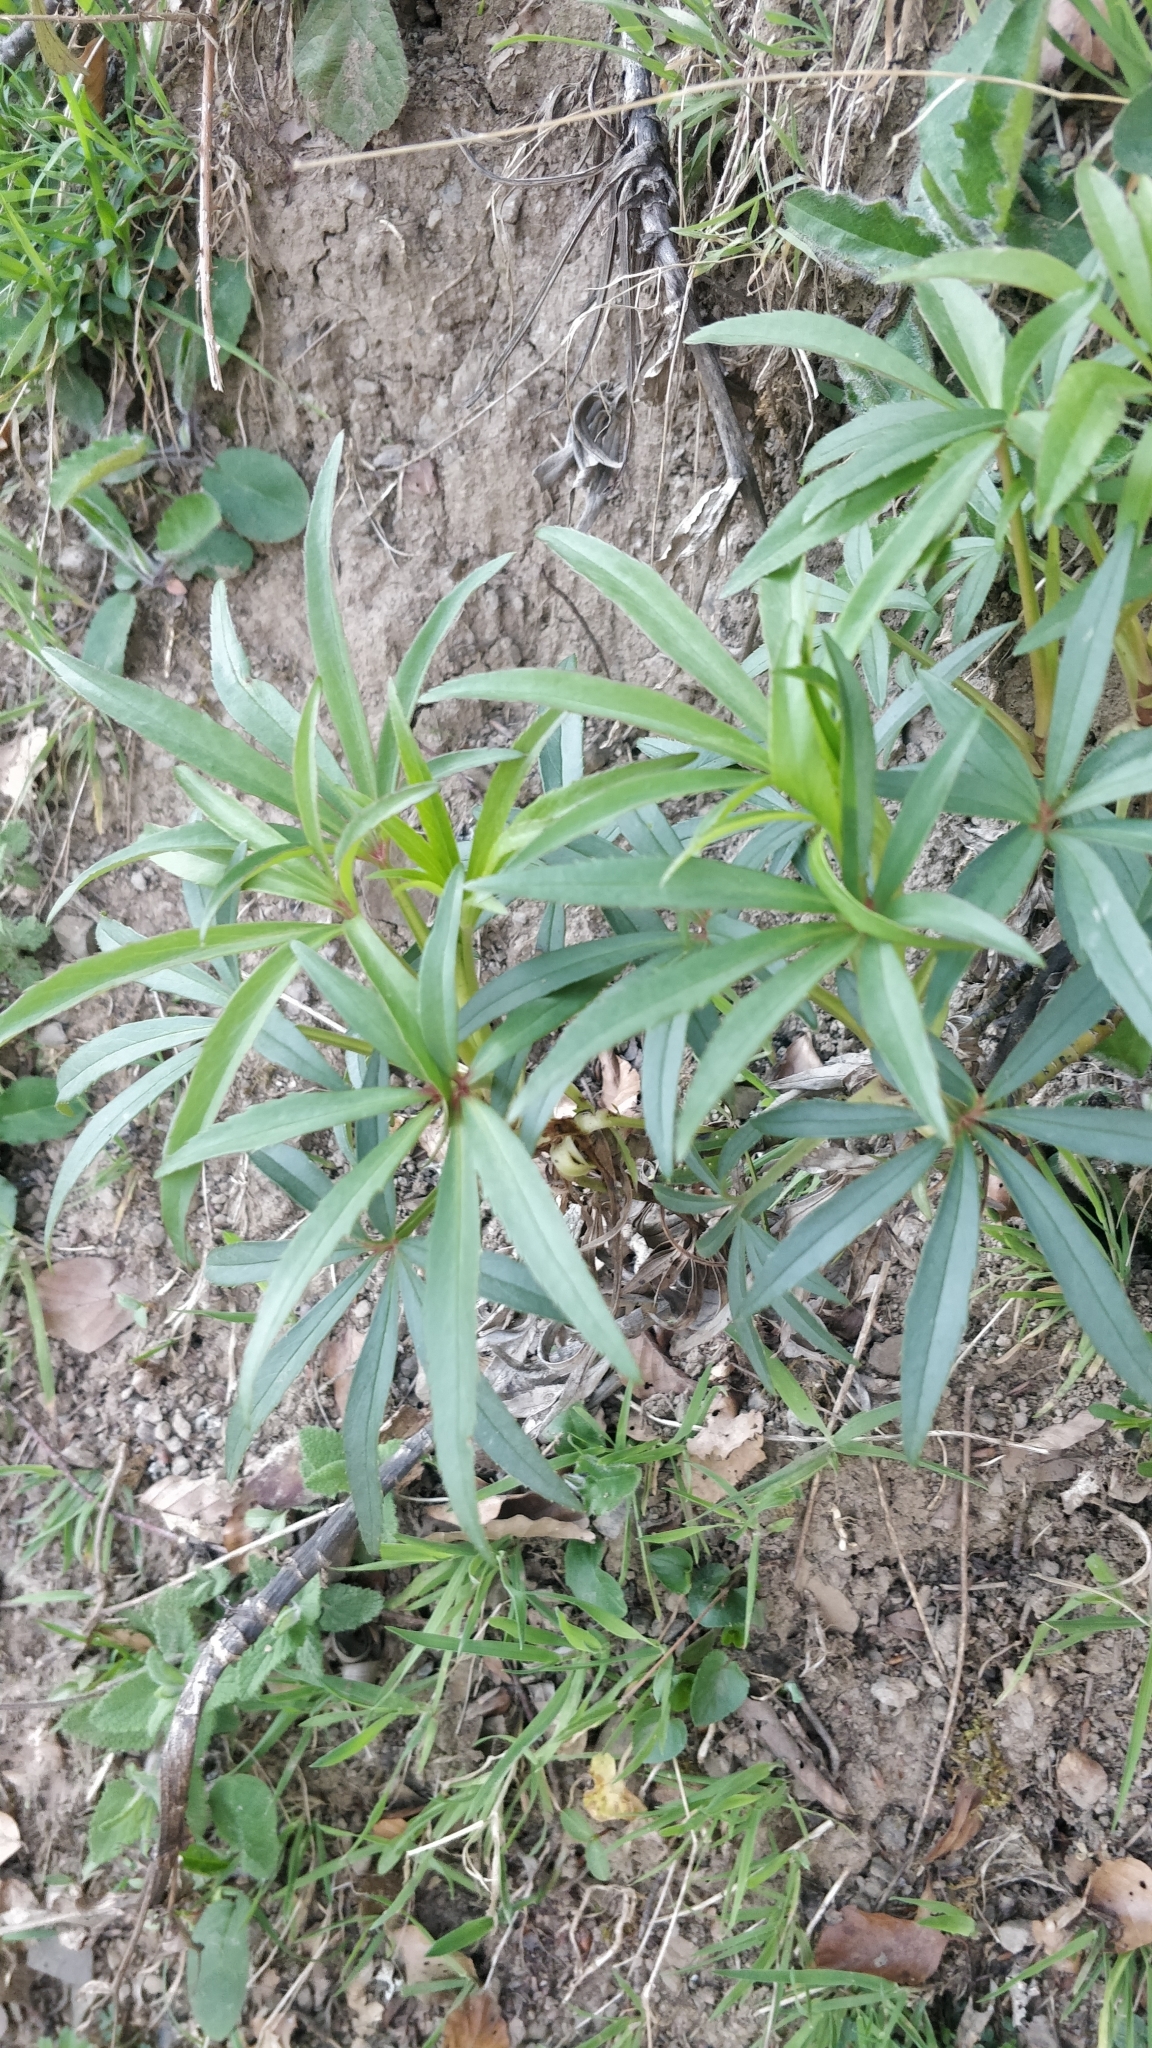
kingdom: Plantae
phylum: Tracheophyta
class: Magnoliopsida
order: Ranunculales
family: Ranunculaceae
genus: Helleborus
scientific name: Helleborus foetidus
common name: Stinking hellebore
